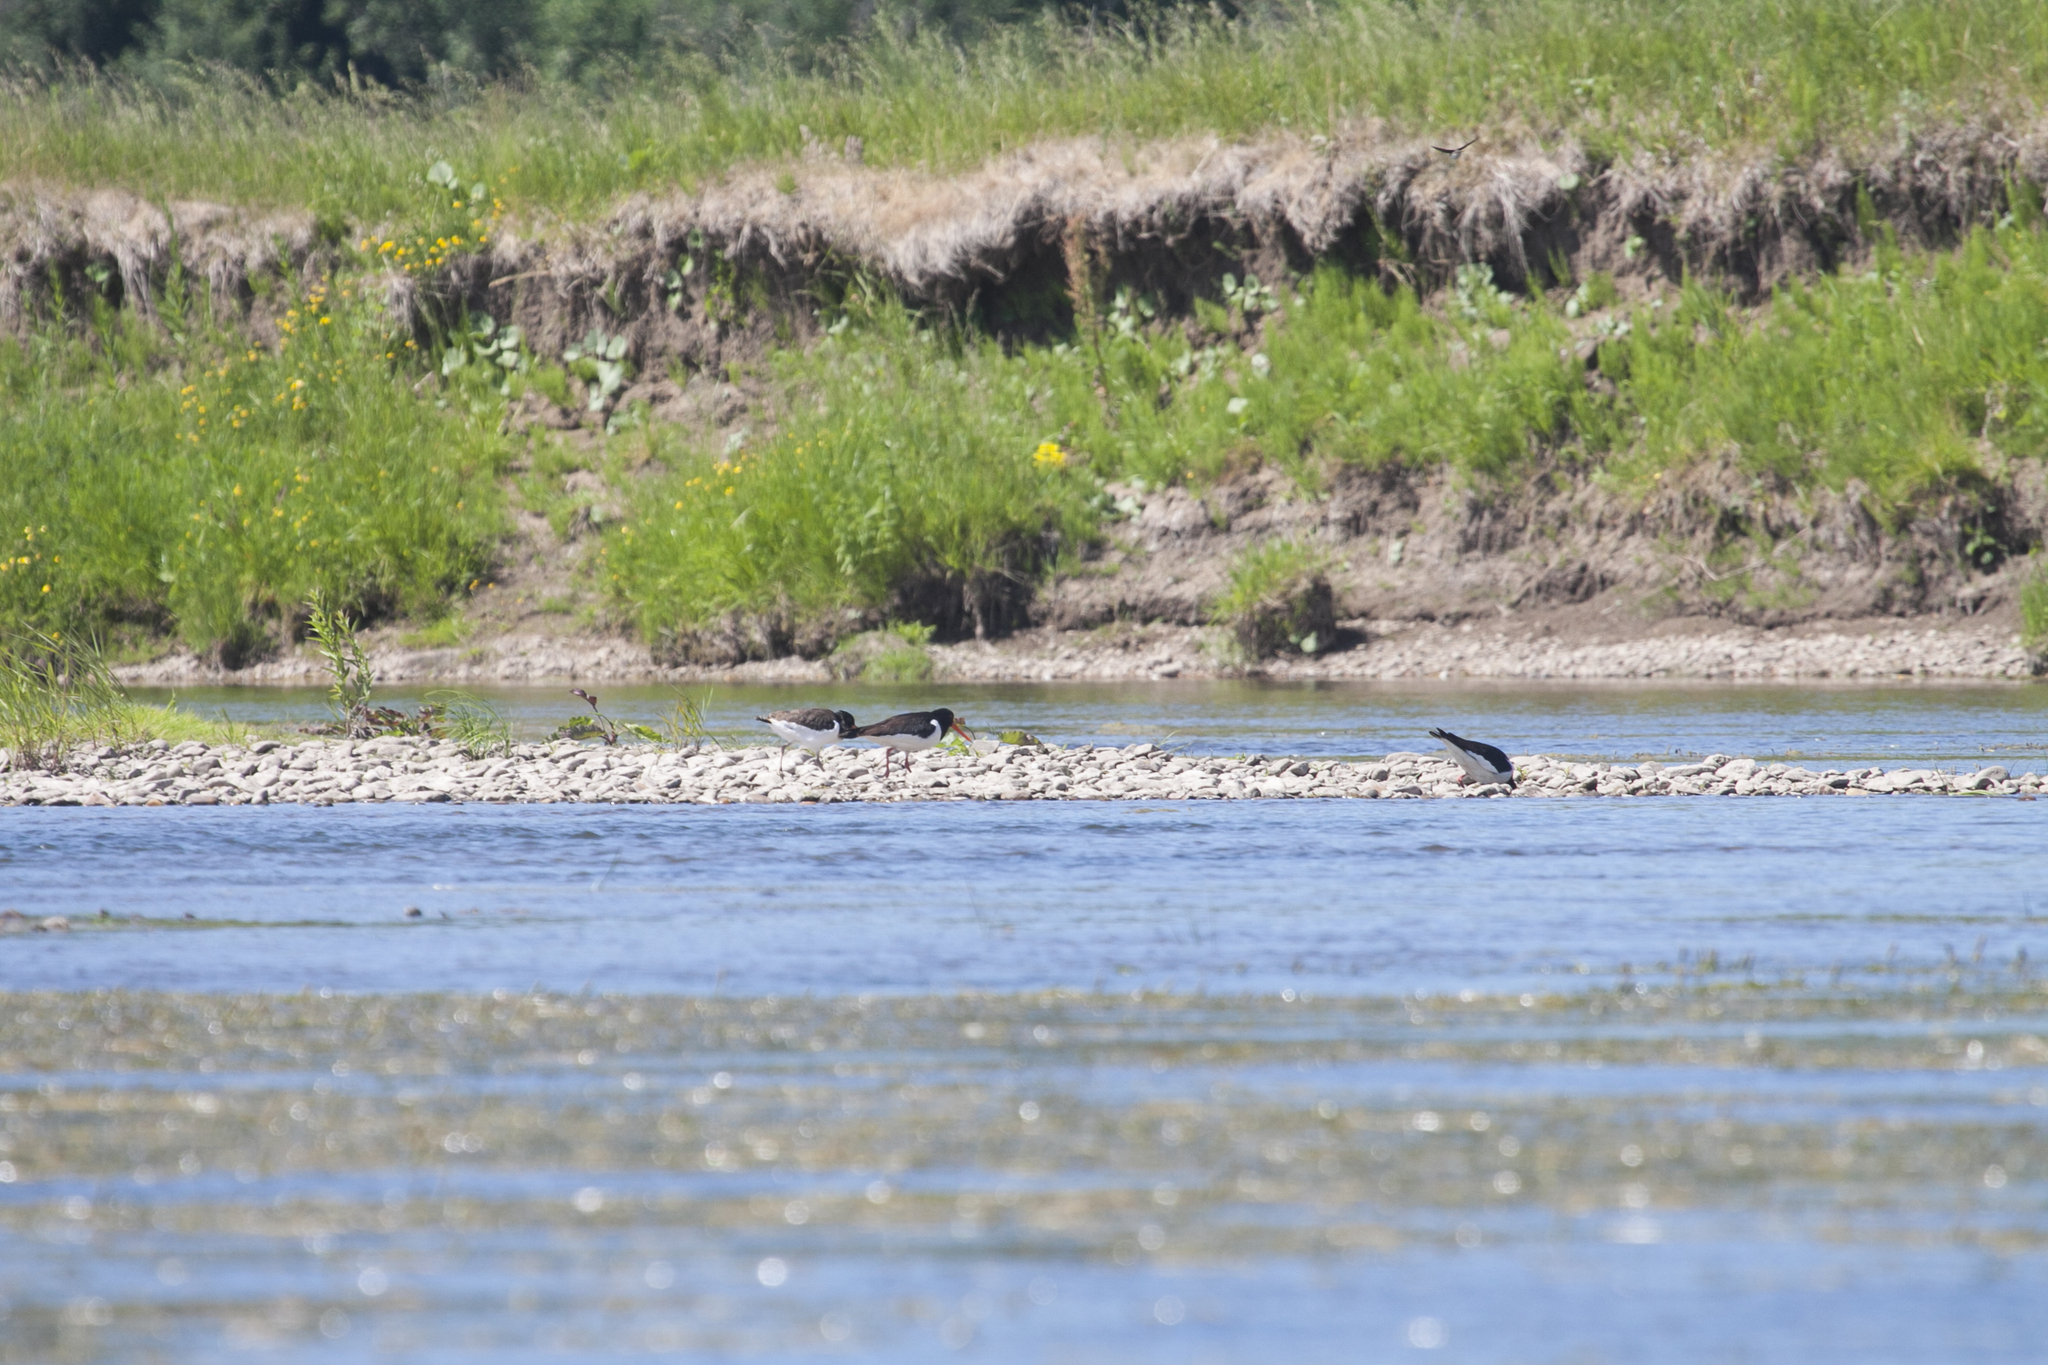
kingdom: Animalia
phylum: Chordata
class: Aves
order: Charadriiformes
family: Haematopodidae
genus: Haematopus
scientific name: Haematopus ostralegus
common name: Eurasian oystercatcher
